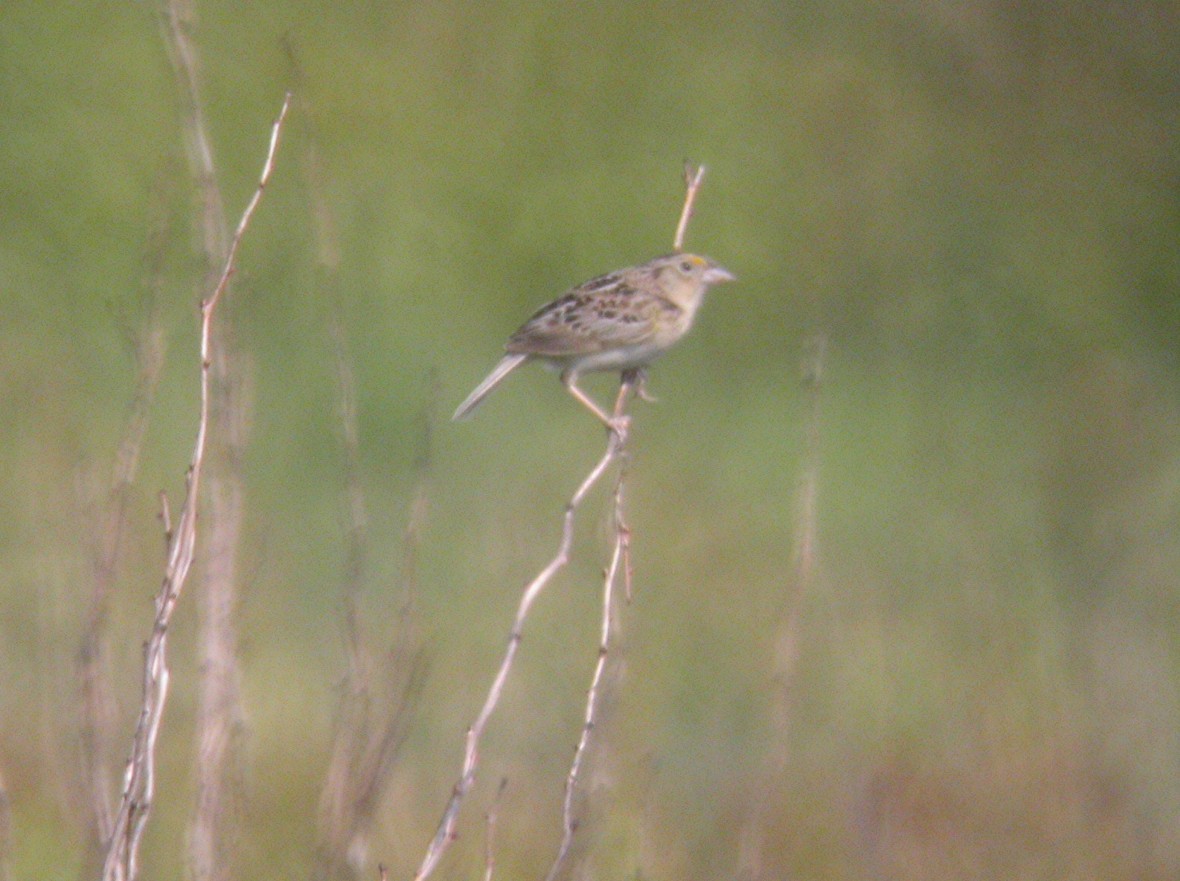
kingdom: Animalia
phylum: Chordata
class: Aves
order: Passeriformes
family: Passerellidae
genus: Ammodramus
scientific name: Ammodramus savannarum
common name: Grasshopper sparrow
